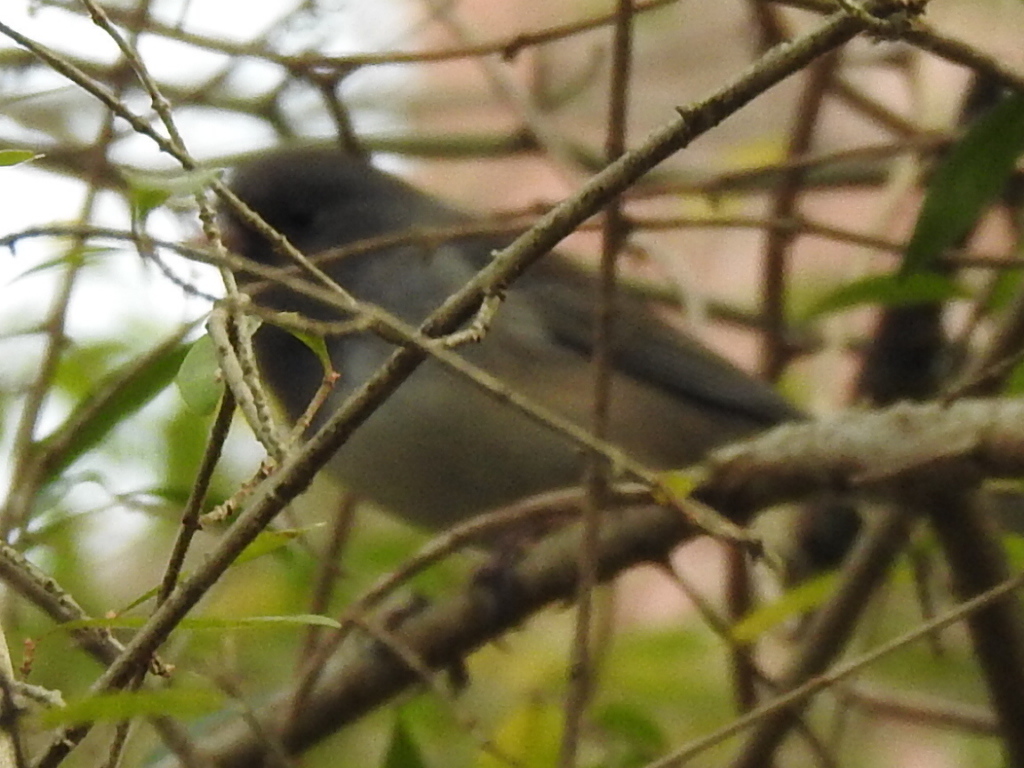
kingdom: Animalia
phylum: Chordata
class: Aves
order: Passeriformes
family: Passerellidae
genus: Junco
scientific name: Junco hyemalis
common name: Dark-eyed junco
